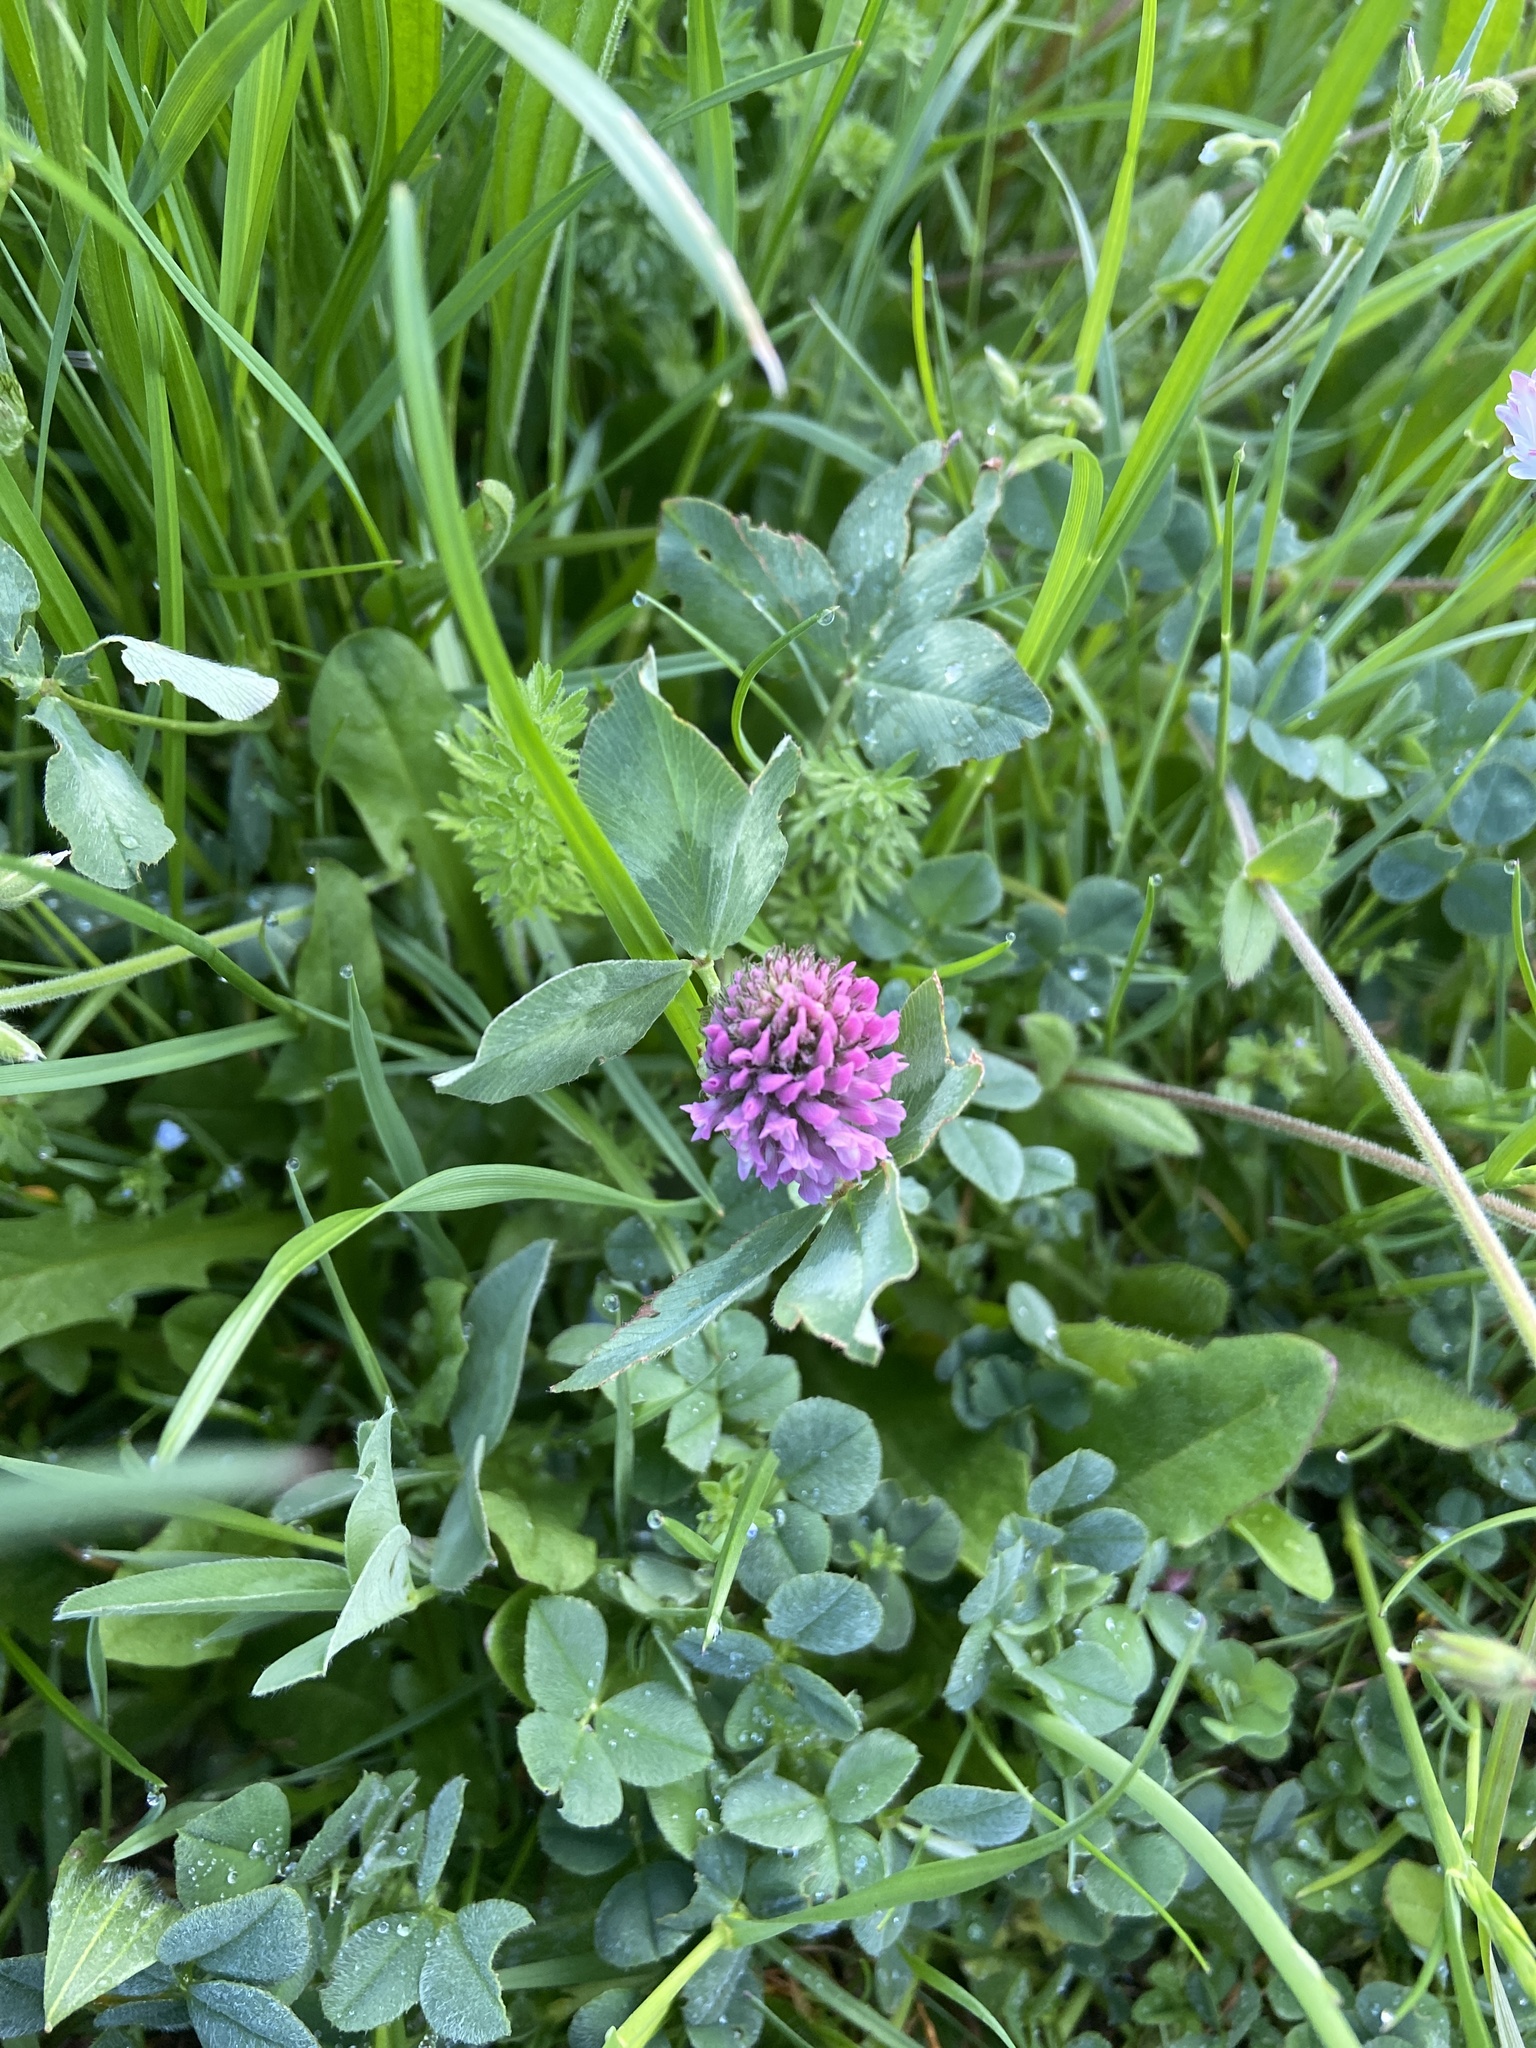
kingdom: Plantae
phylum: Tracheophyta
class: Magnoliopsida
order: Fabales
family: Fabaceae
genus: Trifolium
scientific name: Trifolium pratense
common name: Red clover
